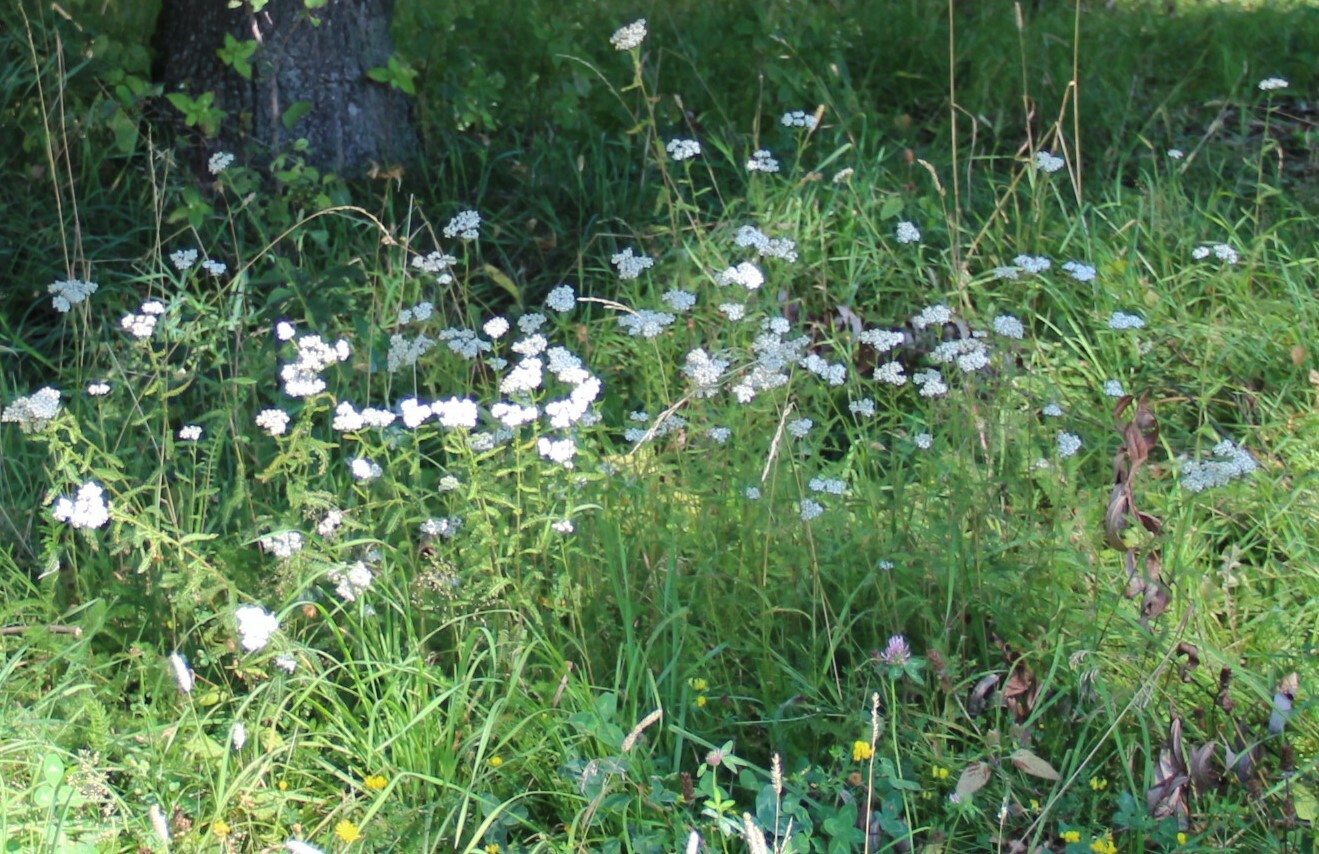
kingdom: Plantae
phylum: Tracheophyta
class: Magnoliopsida
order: Asterales
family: Asteraceae
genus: Achillea
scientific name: Achillea millefolium
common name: Yarrow
